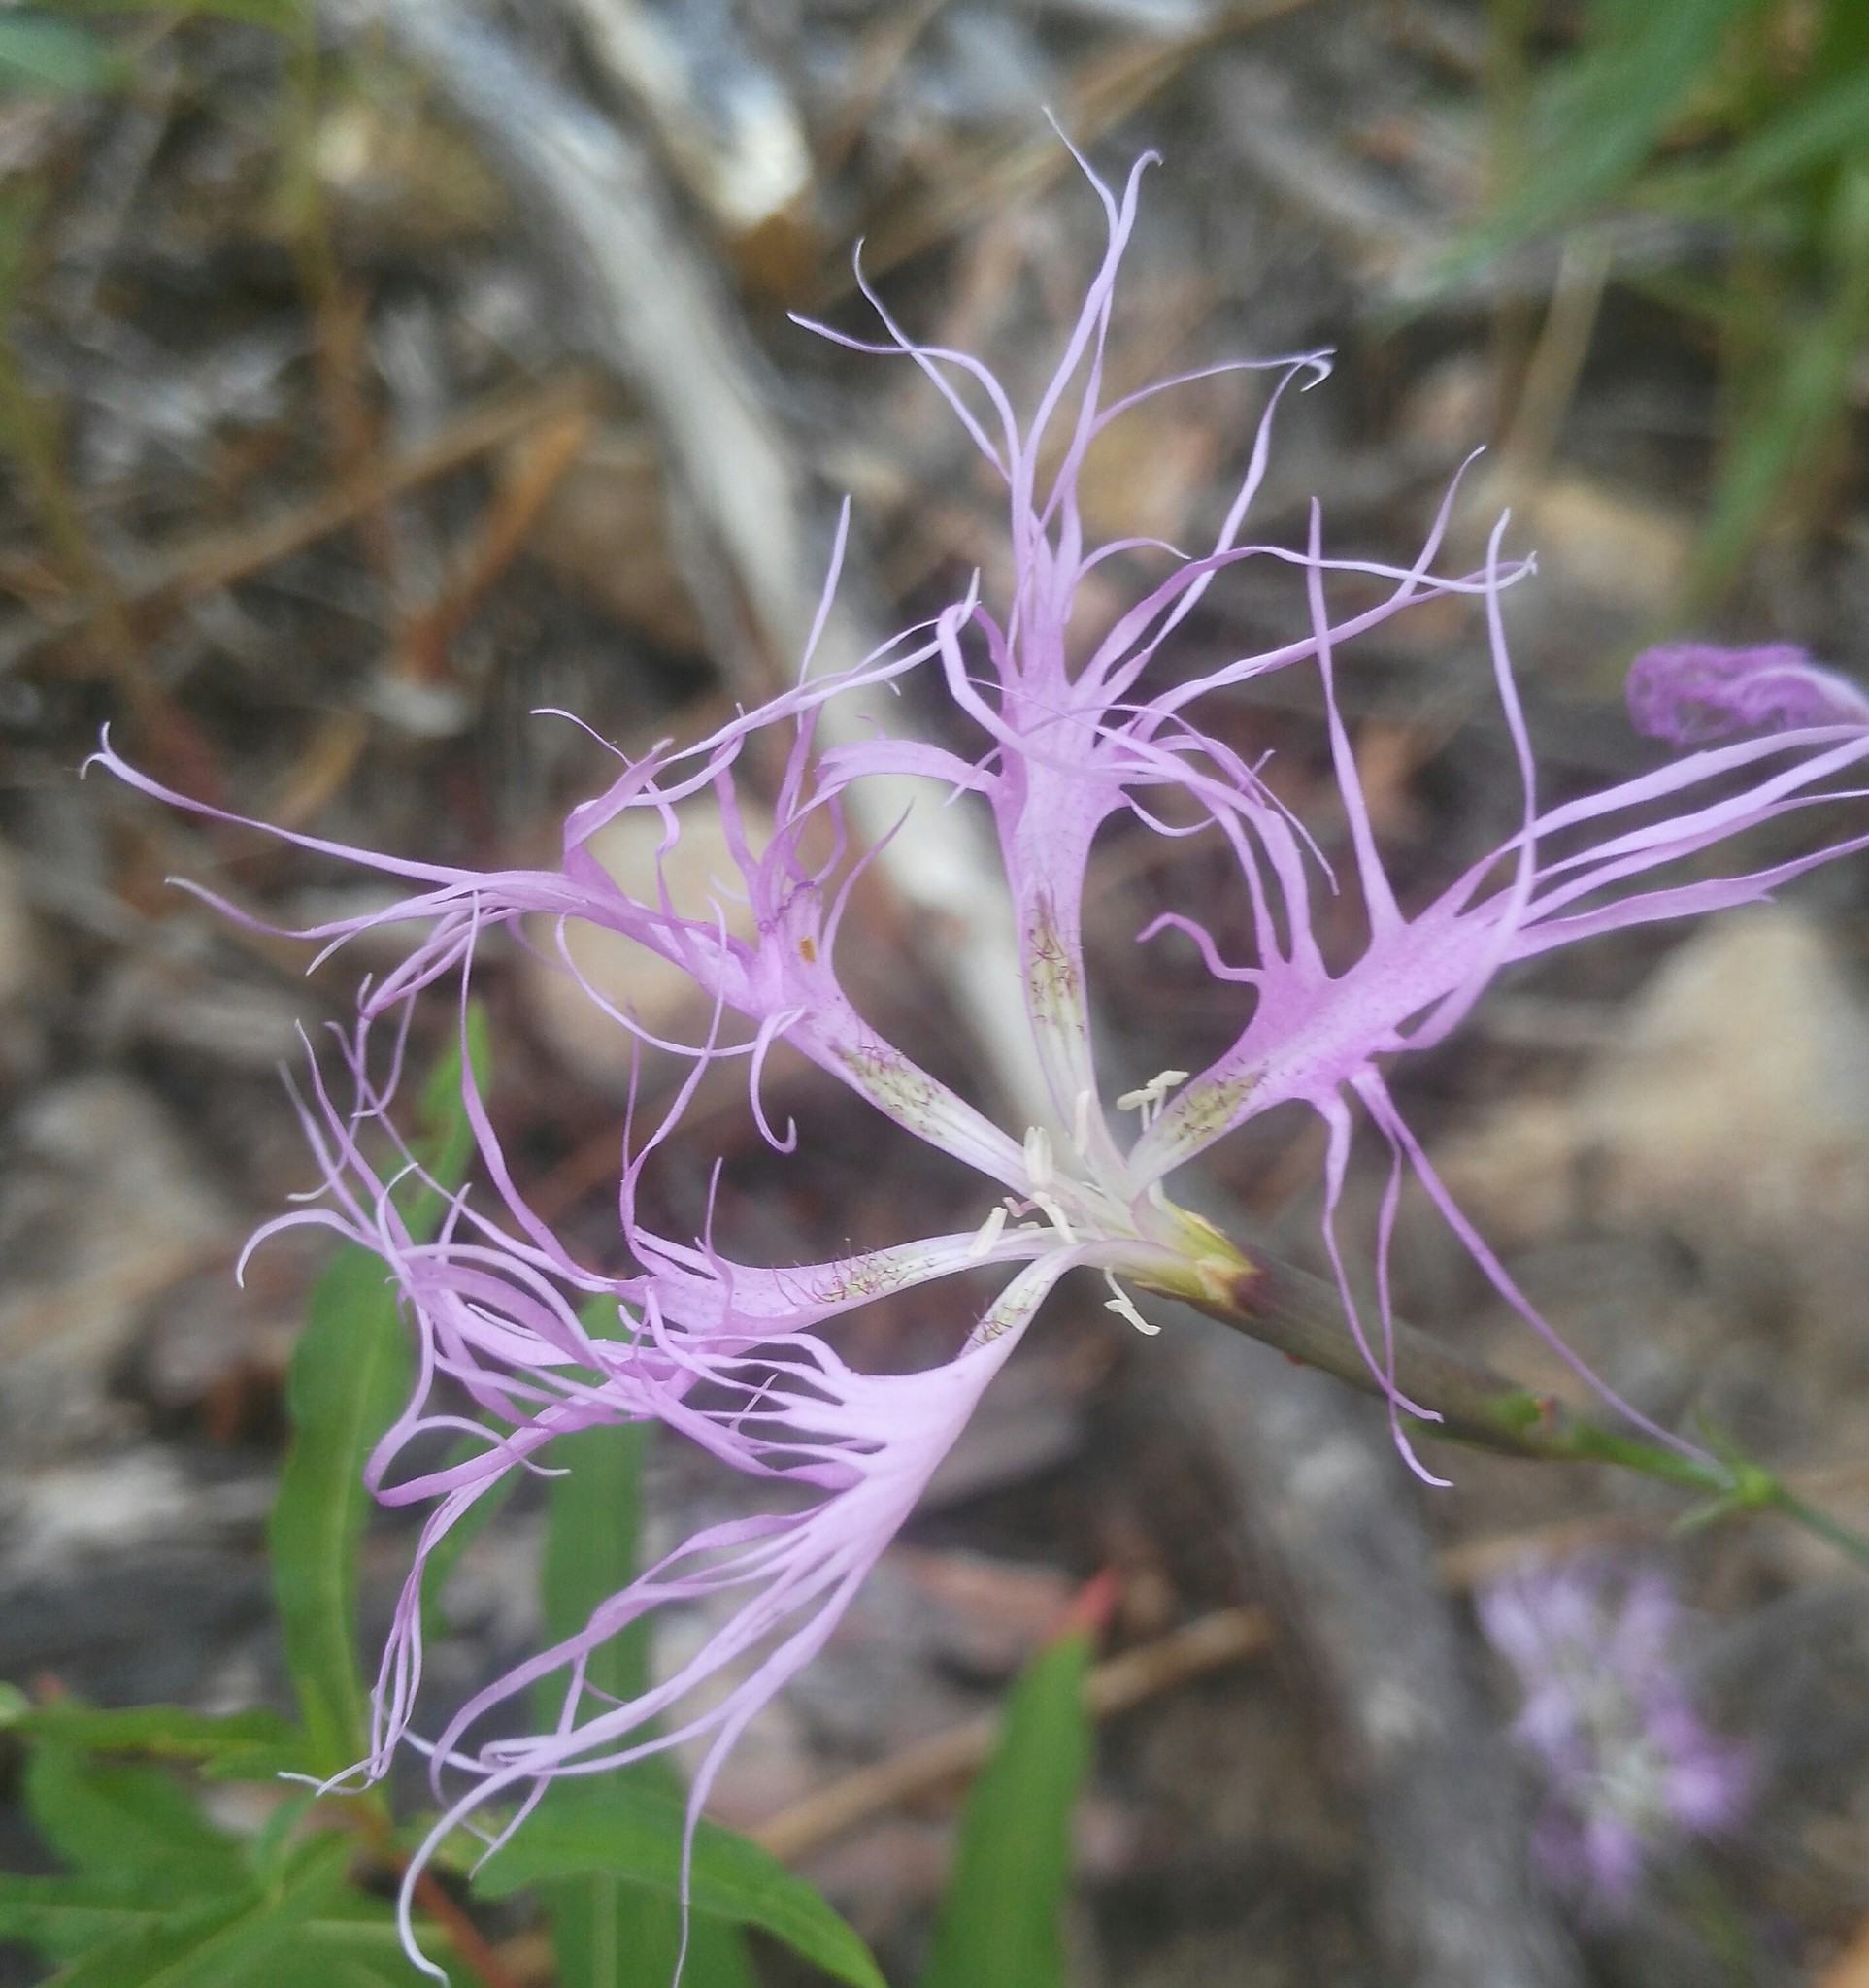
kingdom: Plantae
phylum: Tracheophyta
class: Magnoliopsida
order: Caryophyllales
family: Caryophyllaceae
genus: Dianthus
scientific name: Dianthus superbus
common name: Fringed pink
